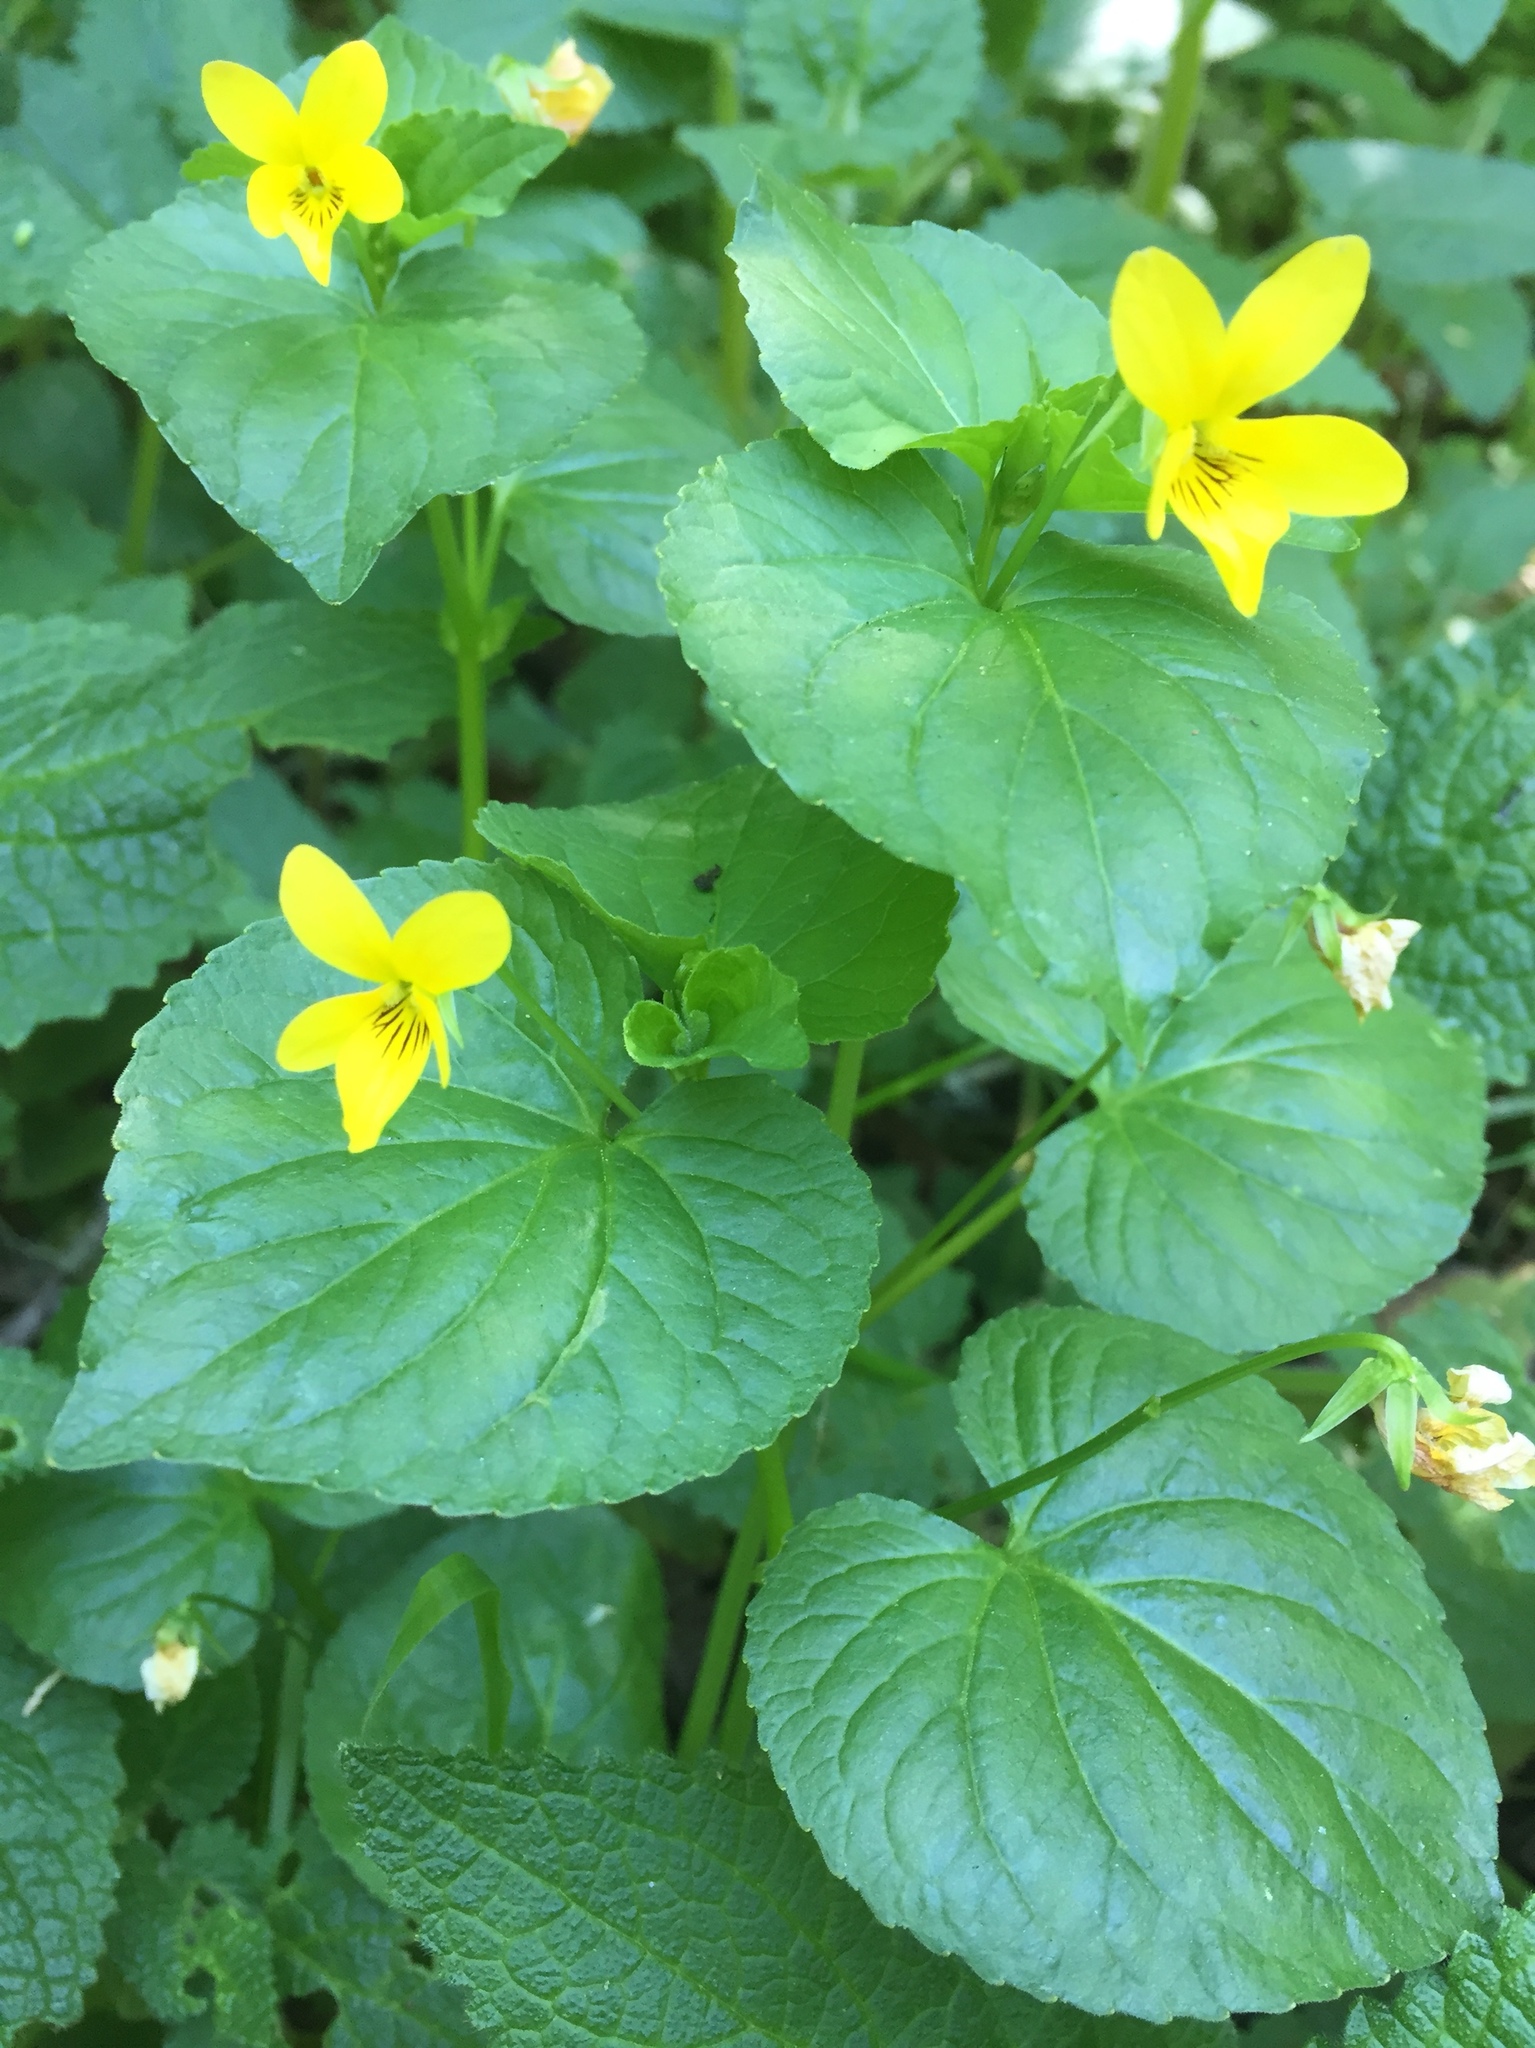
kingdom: Plantae
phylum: Tracheophyta
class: Magnoliopsida
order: Malpighiales
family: Violaceae
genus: Viola
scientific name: Viola glabella
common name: Stream violet
